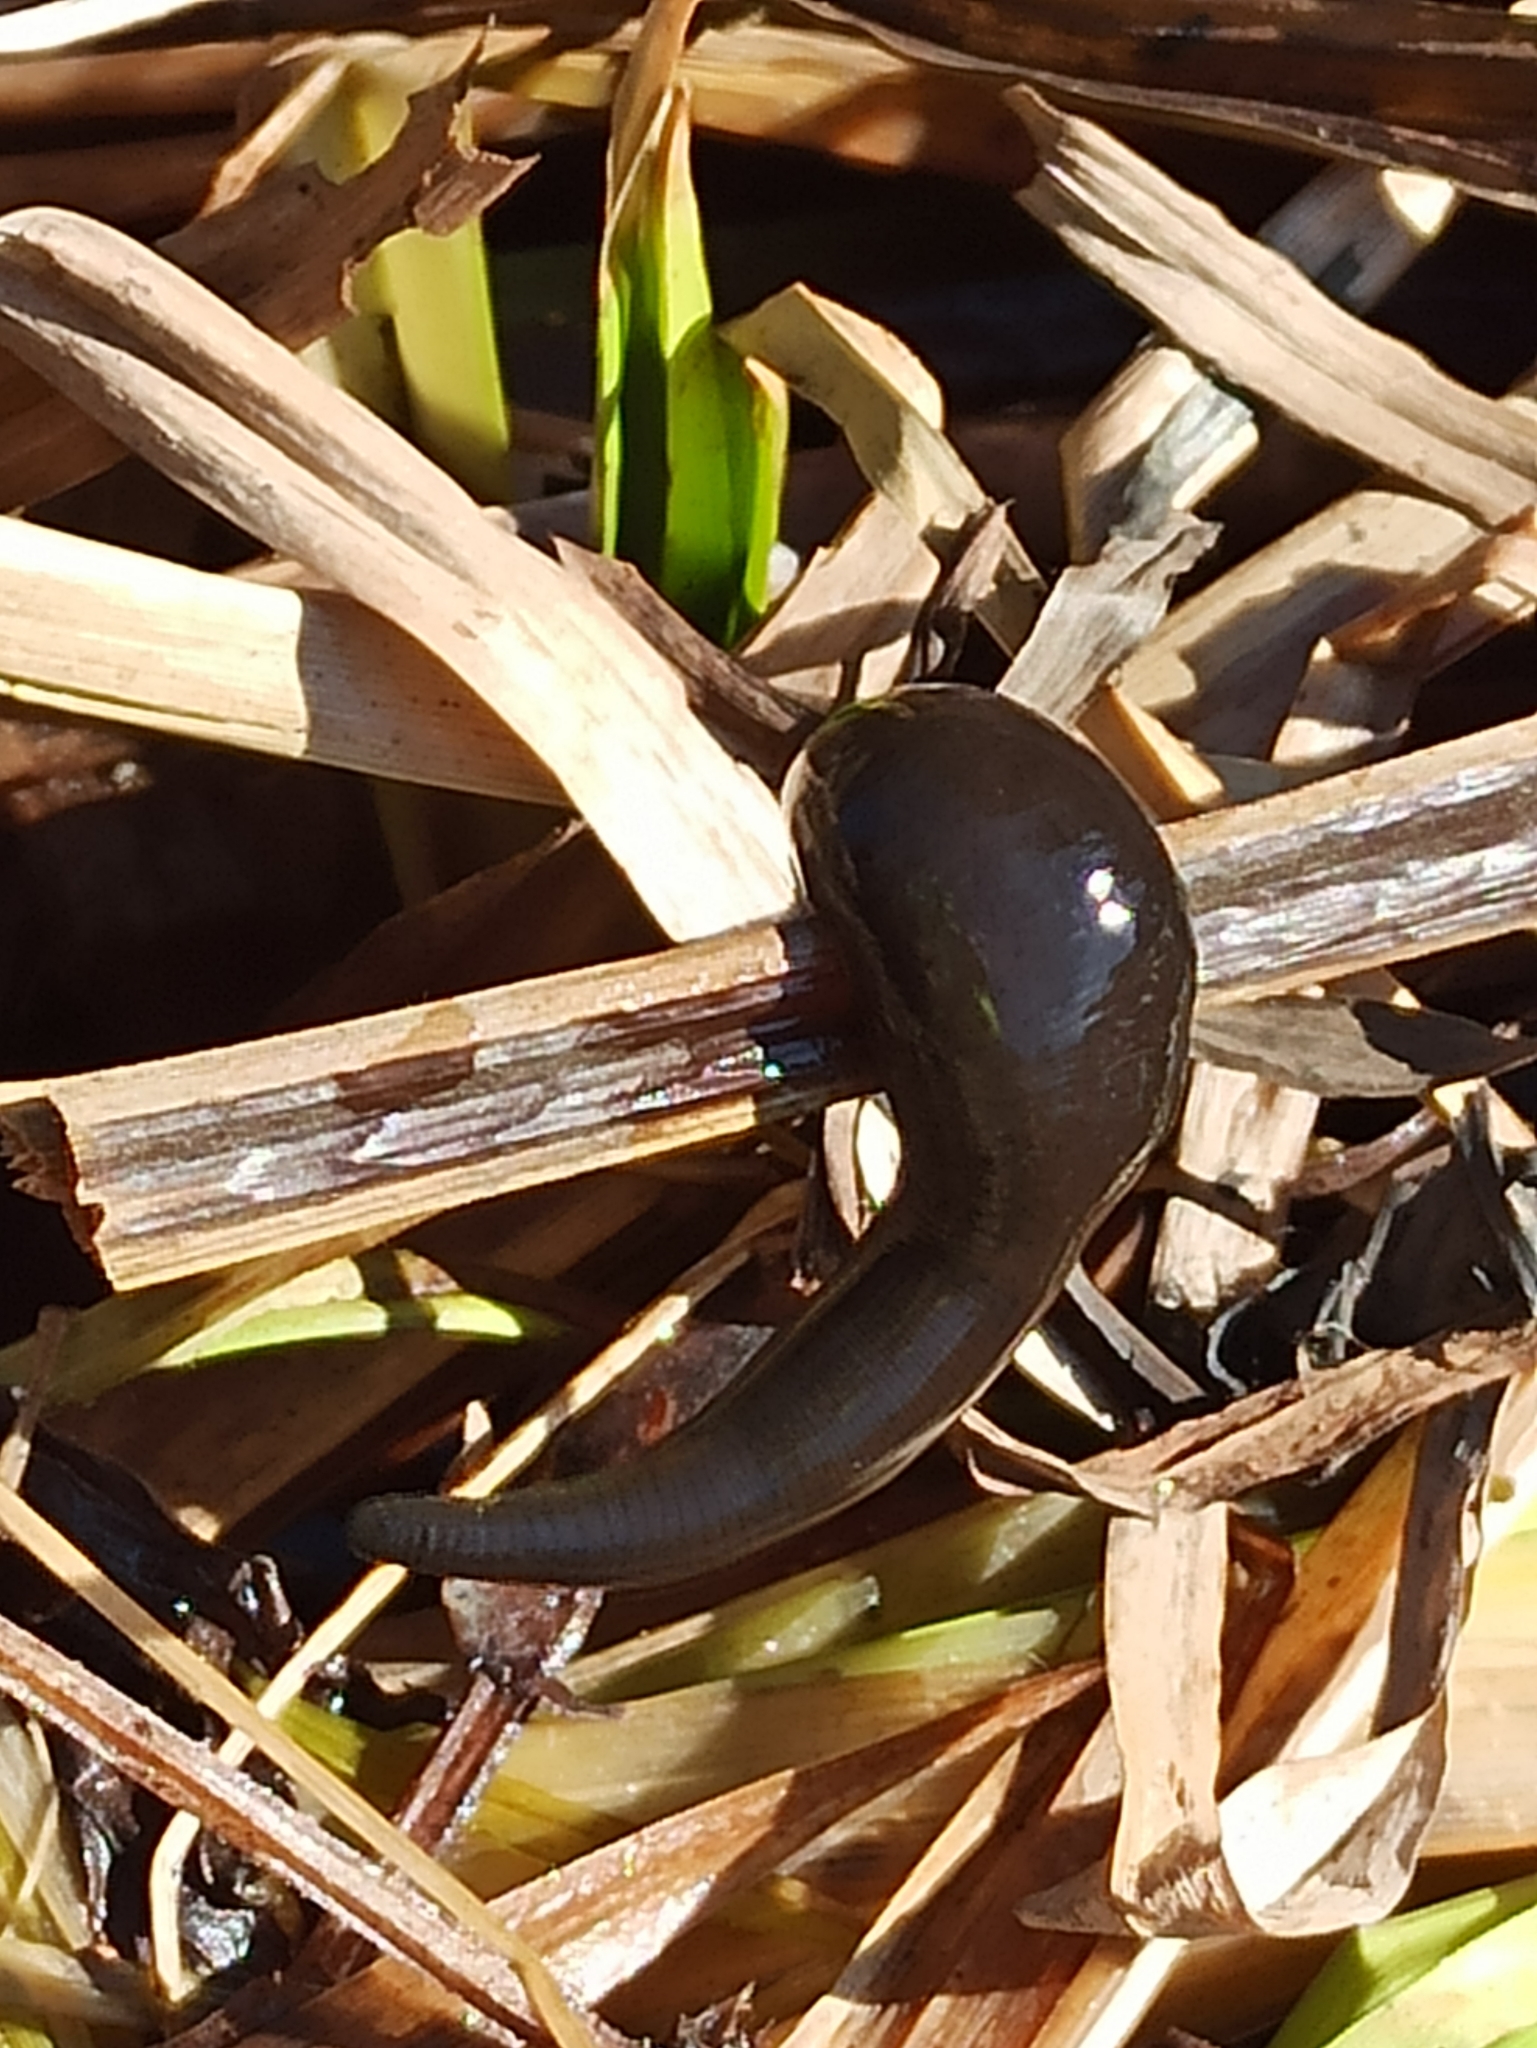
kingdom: Animalia
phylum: Annelida
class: Clitellata
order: Arhynchobdellida
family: Haemopidae
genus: Haemopis
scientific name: Haemopis sanguisuga
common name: Horse leech
